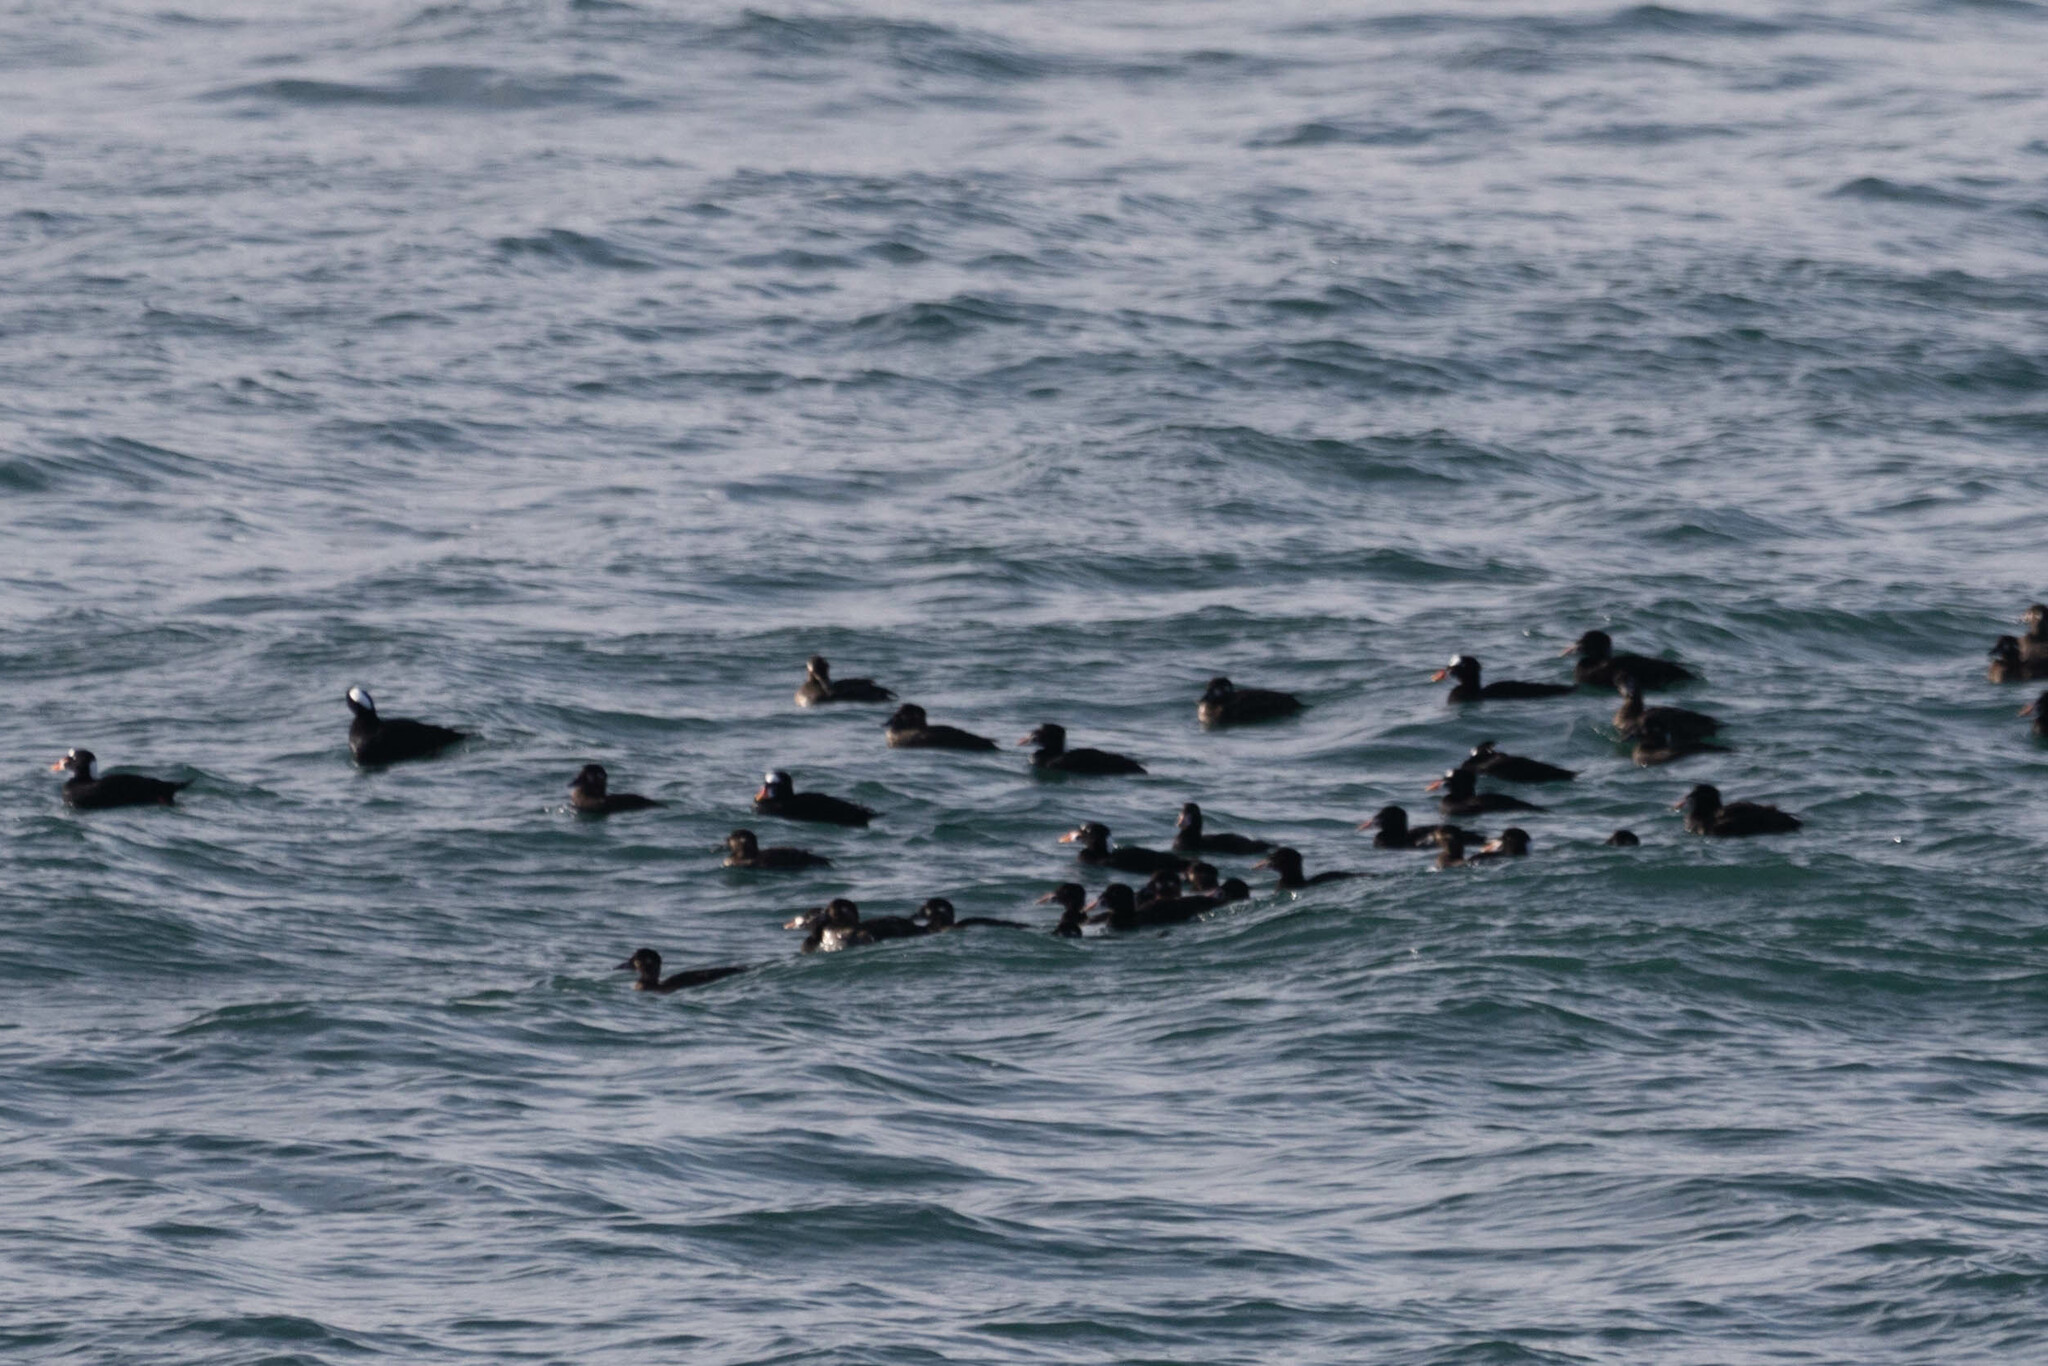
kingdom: Animalia
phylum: Chordata
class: Aves
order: Anseriformes
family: Anatidae
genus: Melanitta
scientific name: Melanitta perspicillata
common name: Surf scoter
